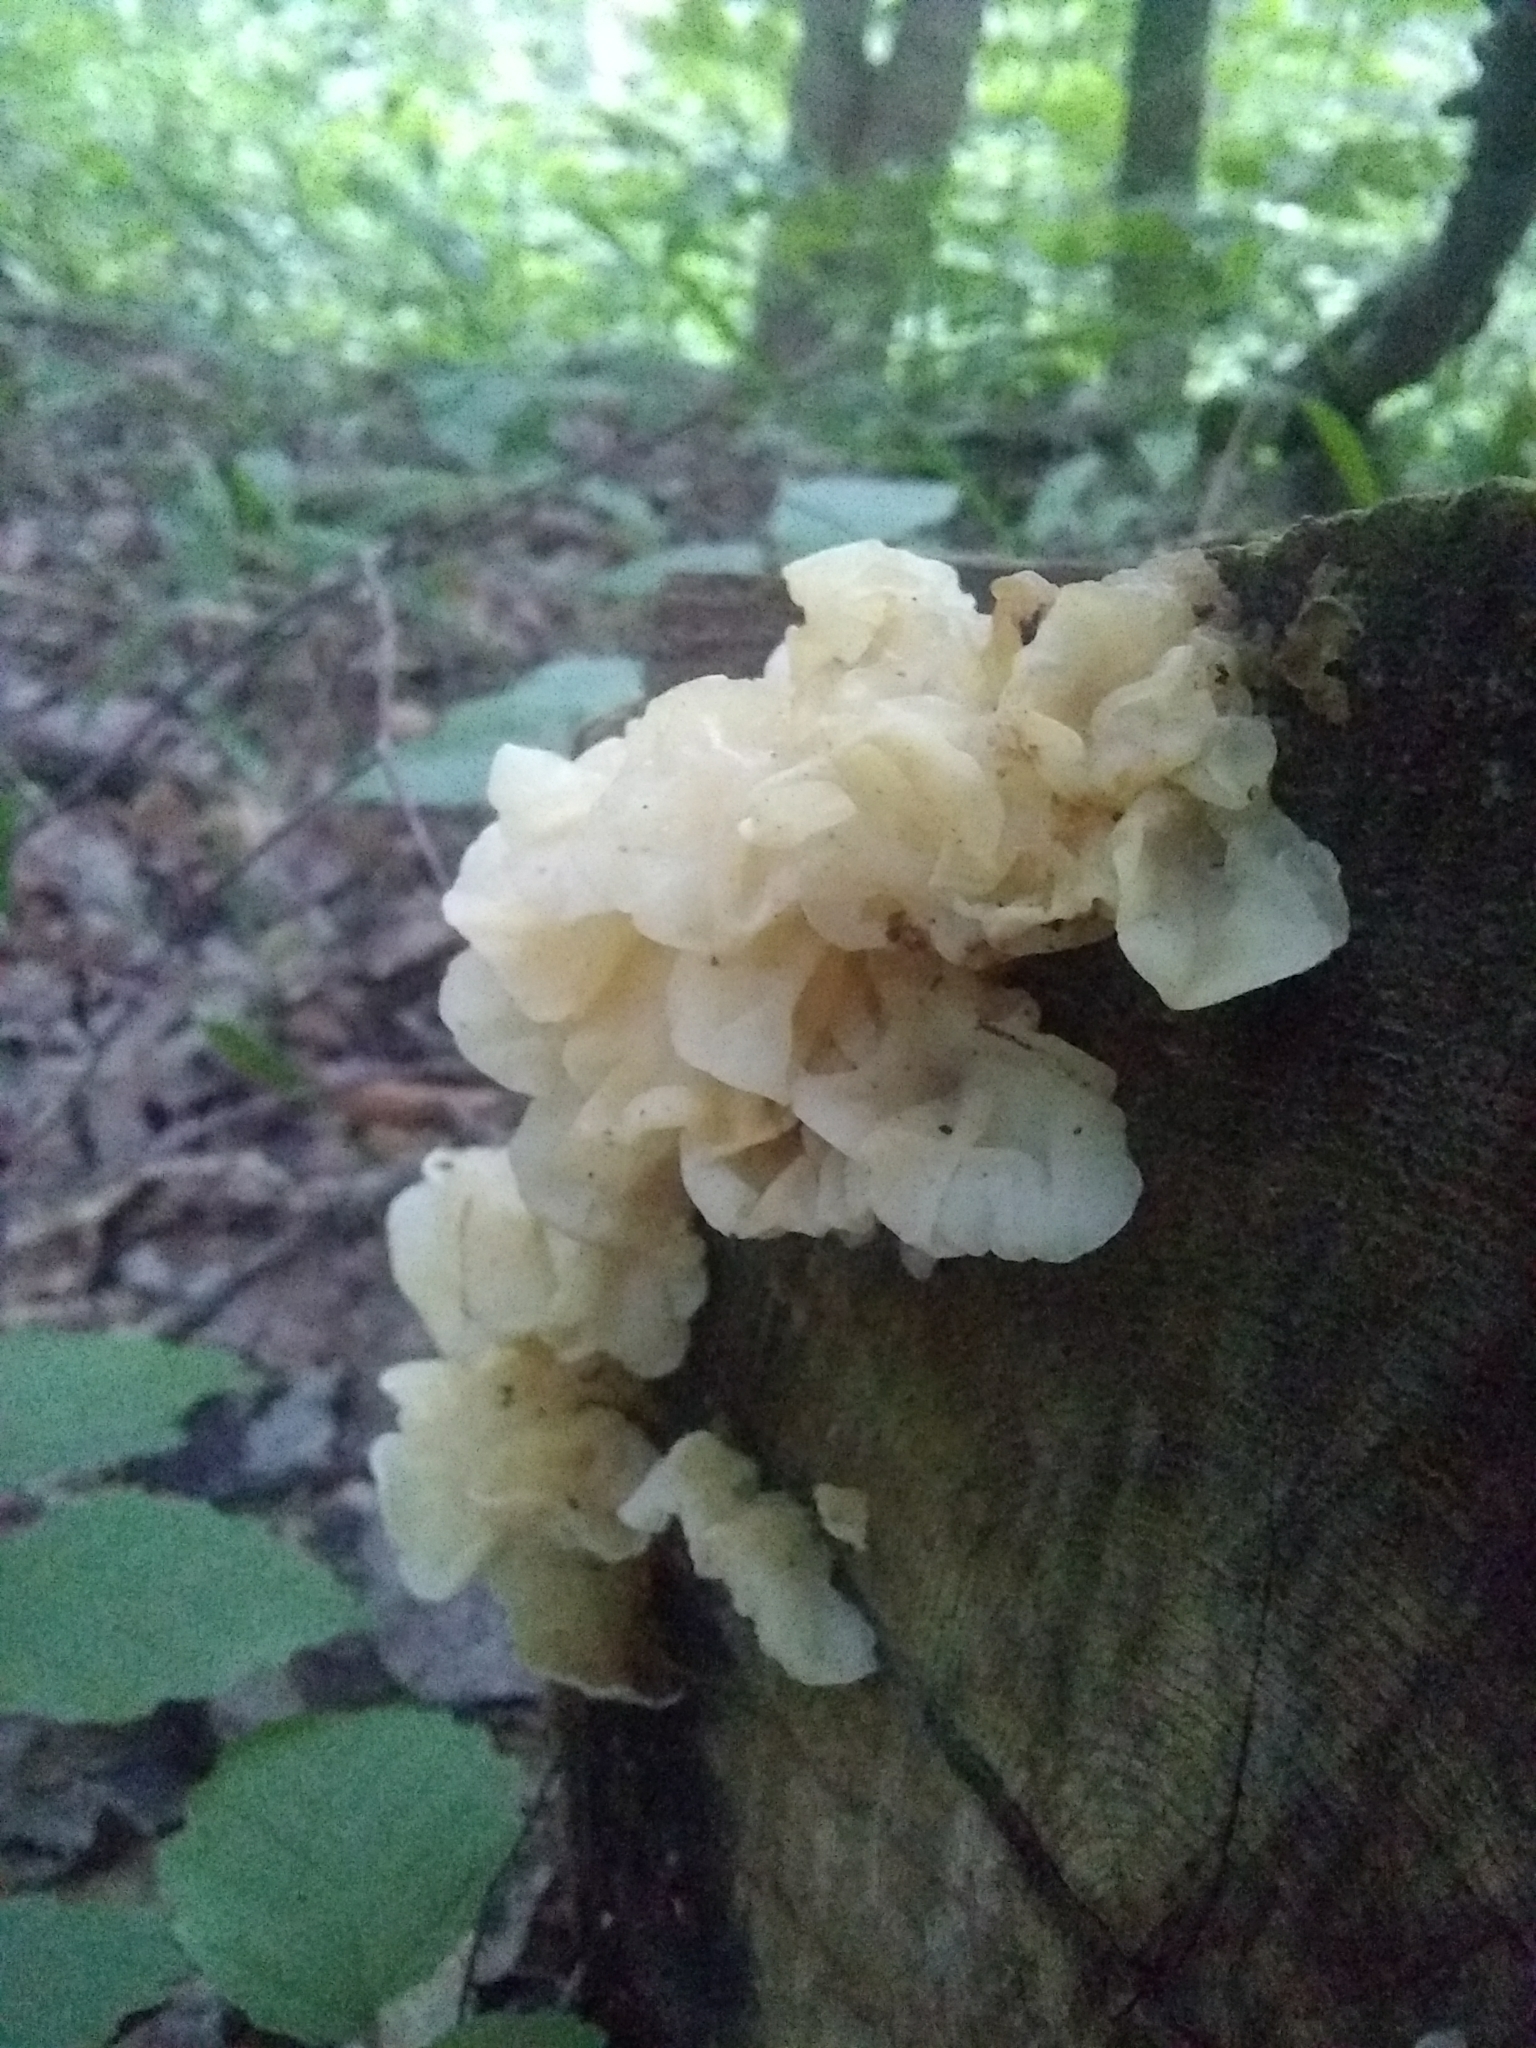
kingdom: Fungi
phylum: Basidiomycota
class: Agaricomycetes
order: Auriculariales
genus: Ductifera
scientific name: Ductifera pululahuana
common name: White jelly fungus
